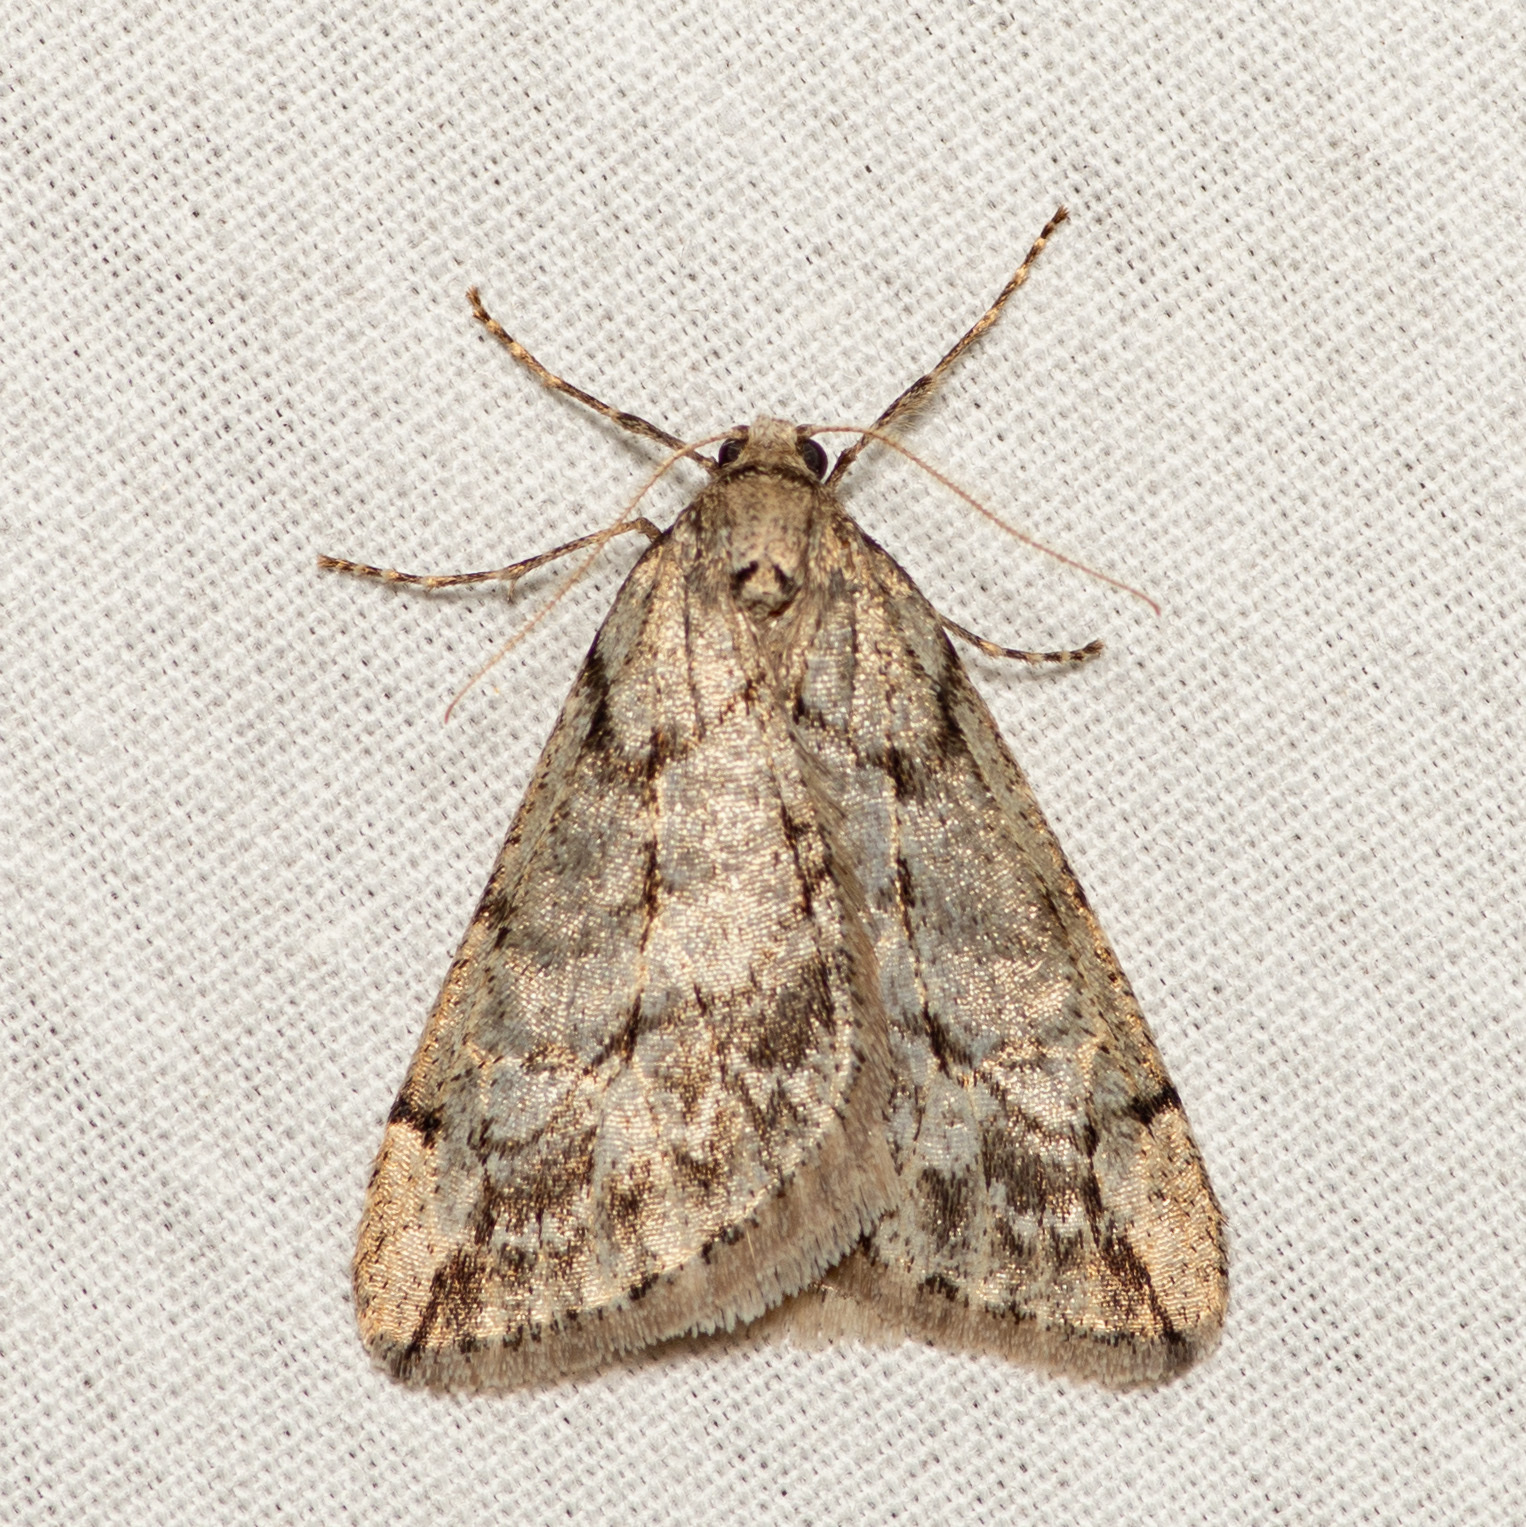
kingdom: Animalia
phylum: Arthropoda
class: Insecta
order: Lepidoptera
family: Geometridae
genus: Paleacrita
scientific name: Paleacrita vernata
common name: Spring cankerworm
